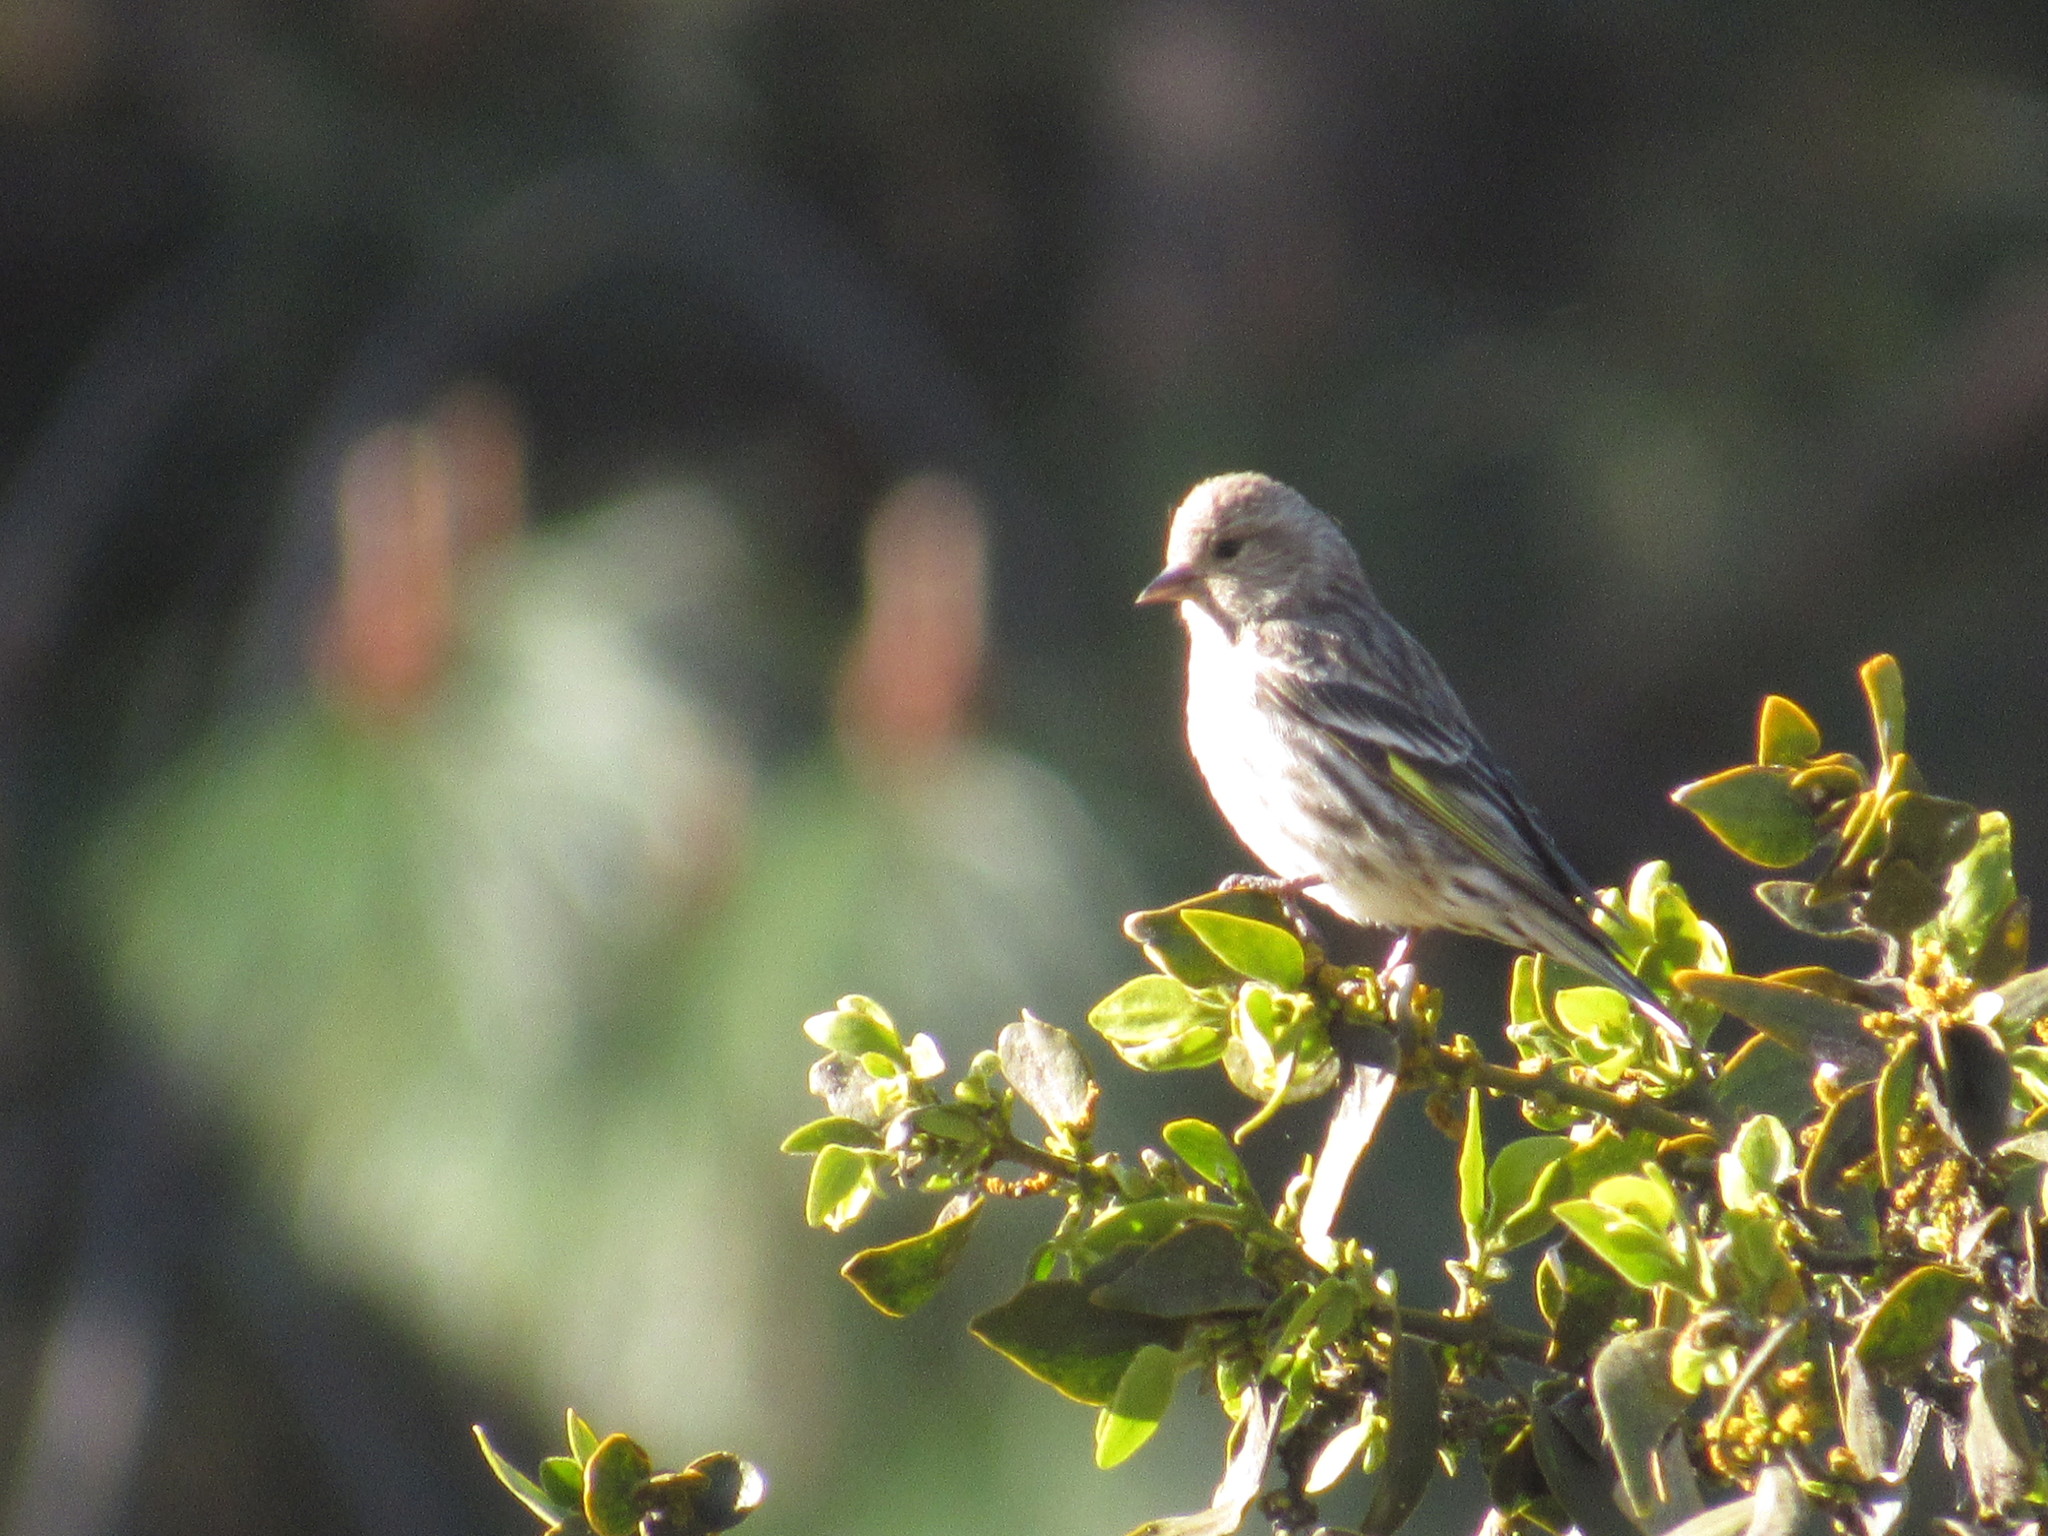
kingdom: Animalia
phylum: Chordata
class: Aves
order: Passeriformes
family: Fringillidae
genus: Spinus
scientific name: Spinus pinus
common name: Pine siskin
